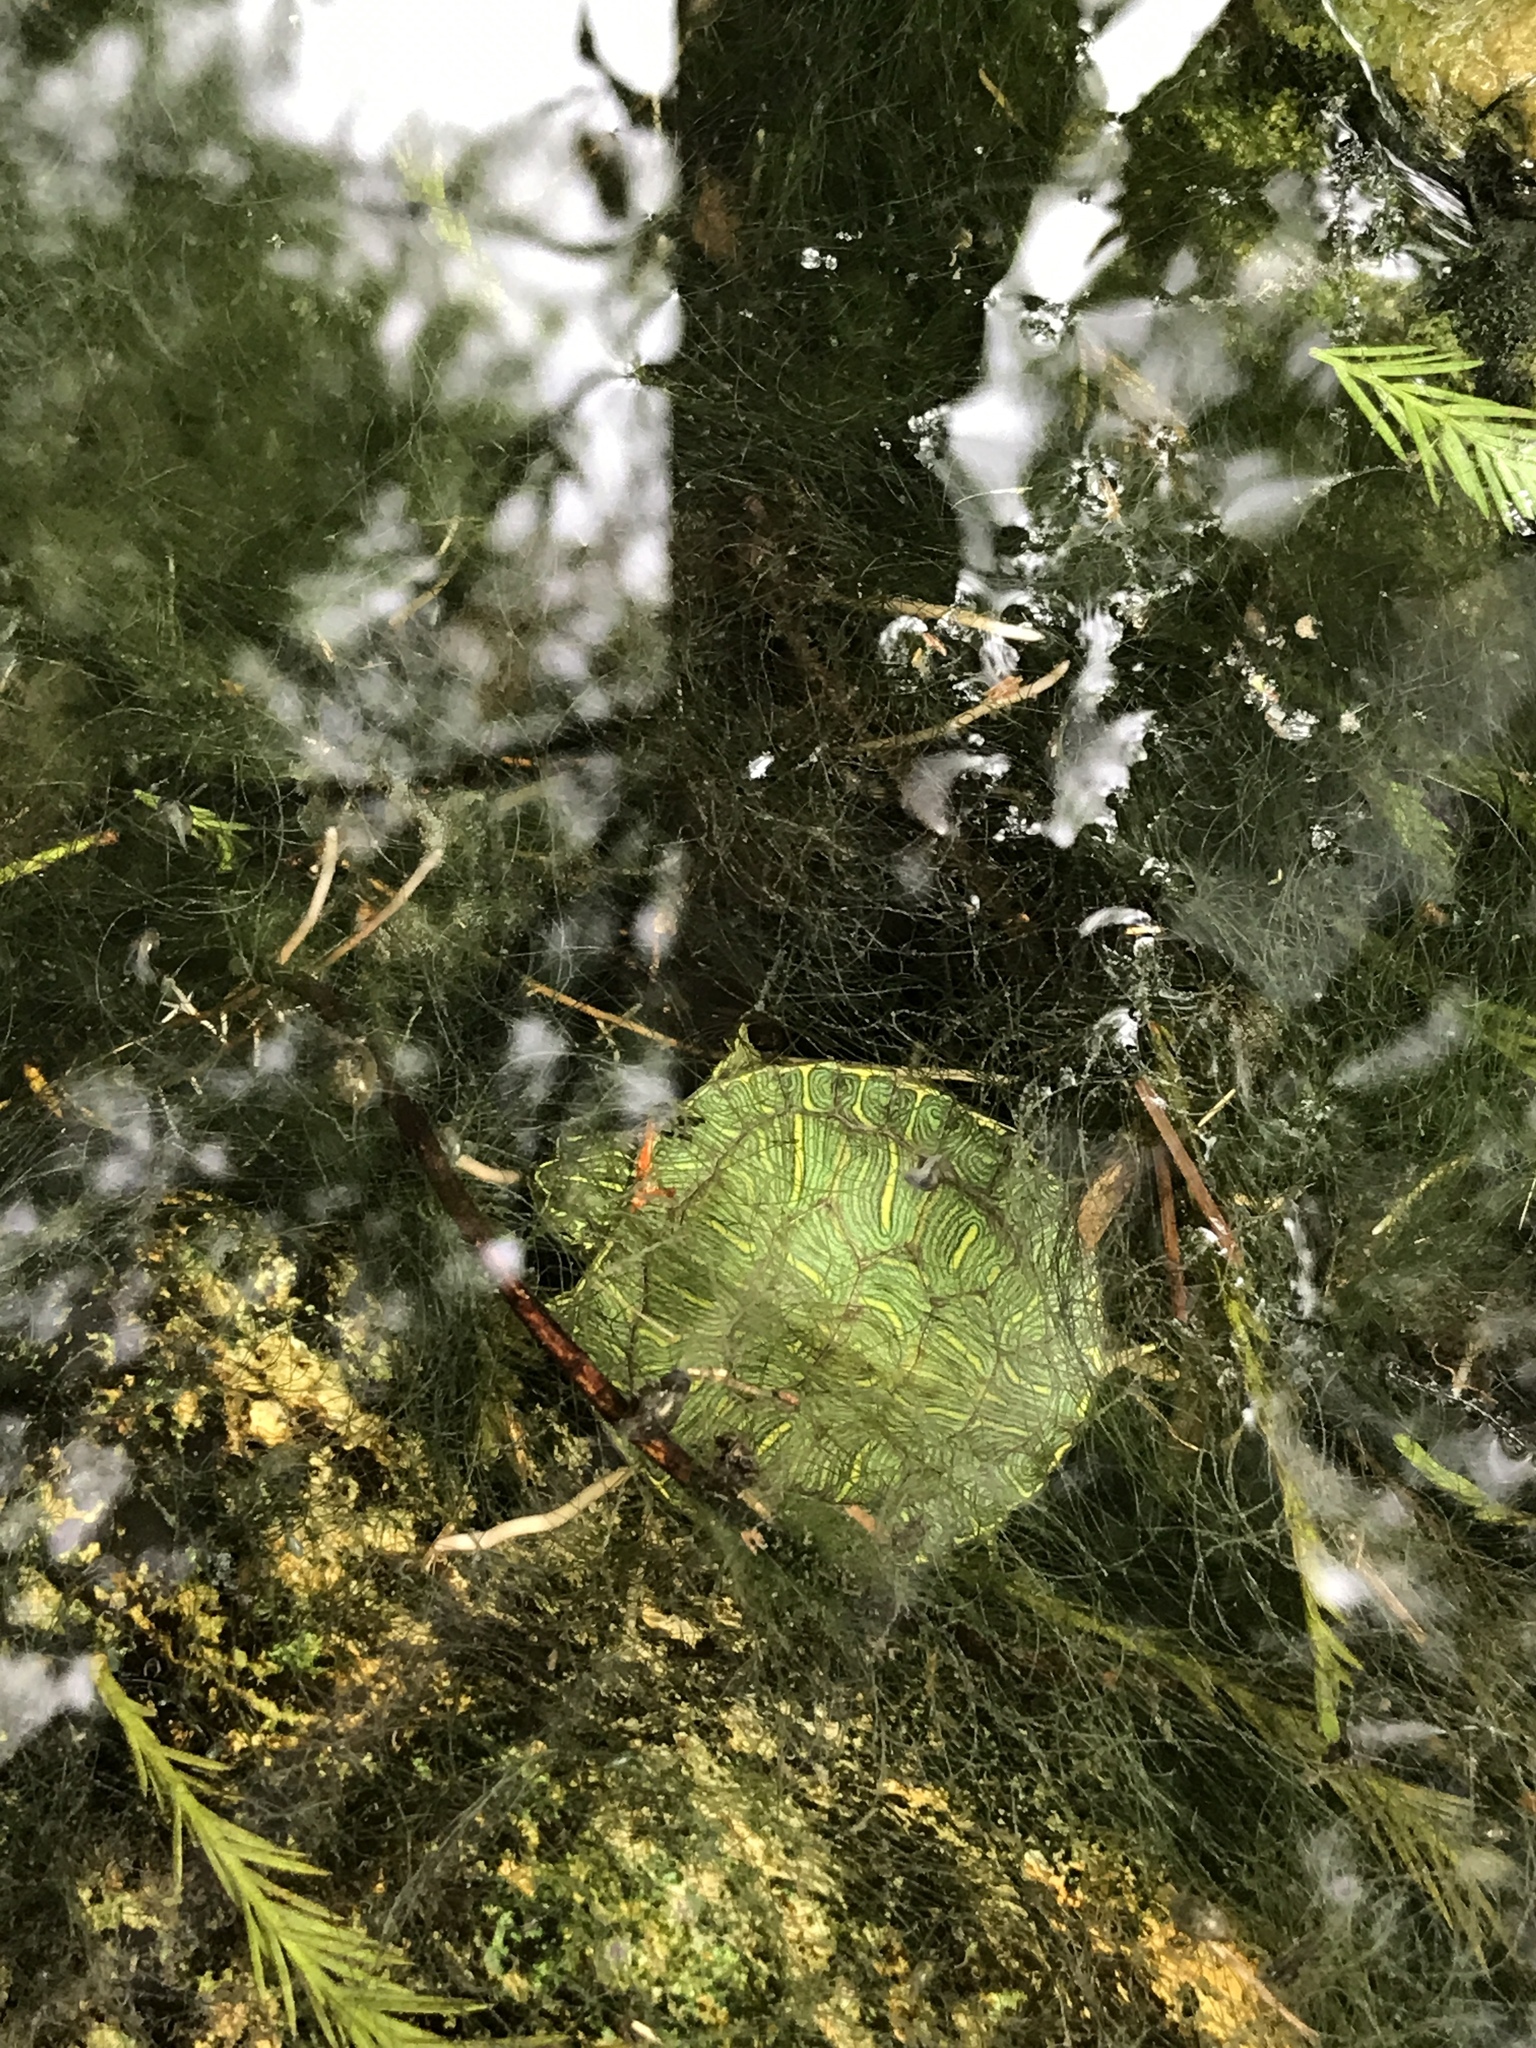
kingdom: Animalia
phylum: Chordata
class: Testudines
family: Emydidae
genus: Trachemys
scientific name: Trachemys scripta
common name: Slider
